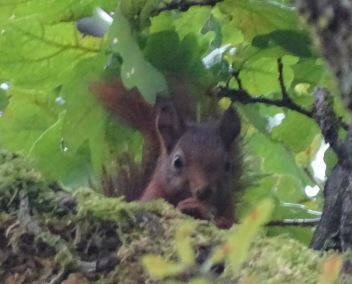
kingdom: Animalia
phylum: Chordata
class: Mammalia
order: Rodentia
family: Sciuridae
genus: Sciurus
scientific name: Sciurus vulgaris
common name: Eurasian red squirrel
